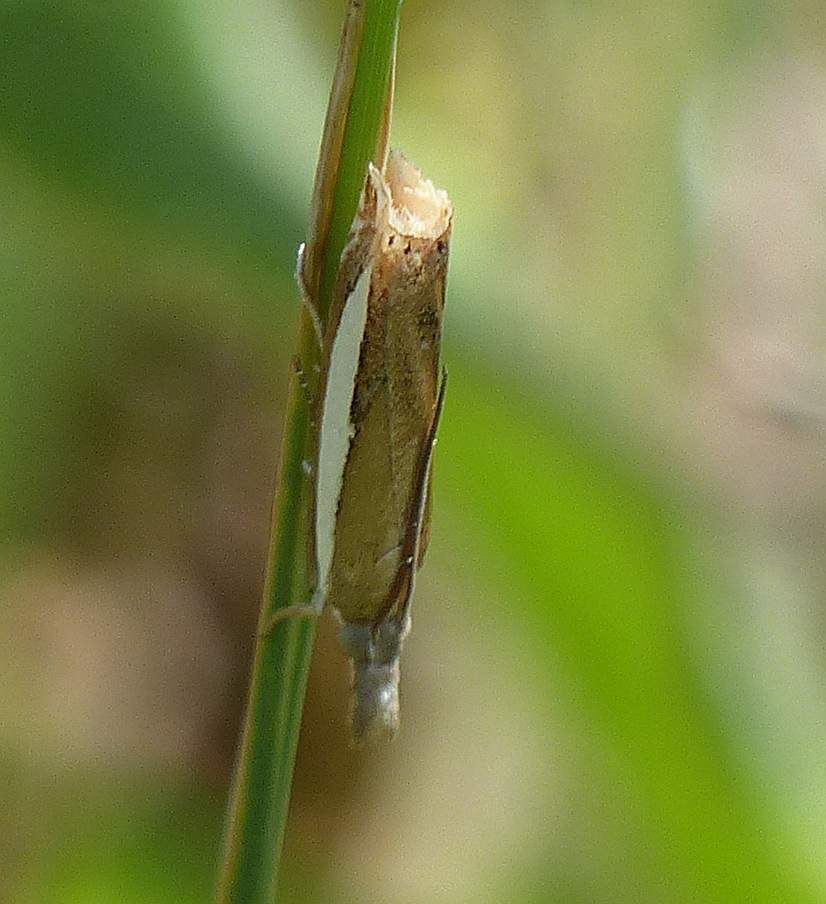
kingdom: Animalia
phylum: Arthropoda
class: Insecta
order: Lepidoptera
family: Crambidae
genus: Crambus
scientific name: Crambus praefectellus
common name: Common grass-veneer
